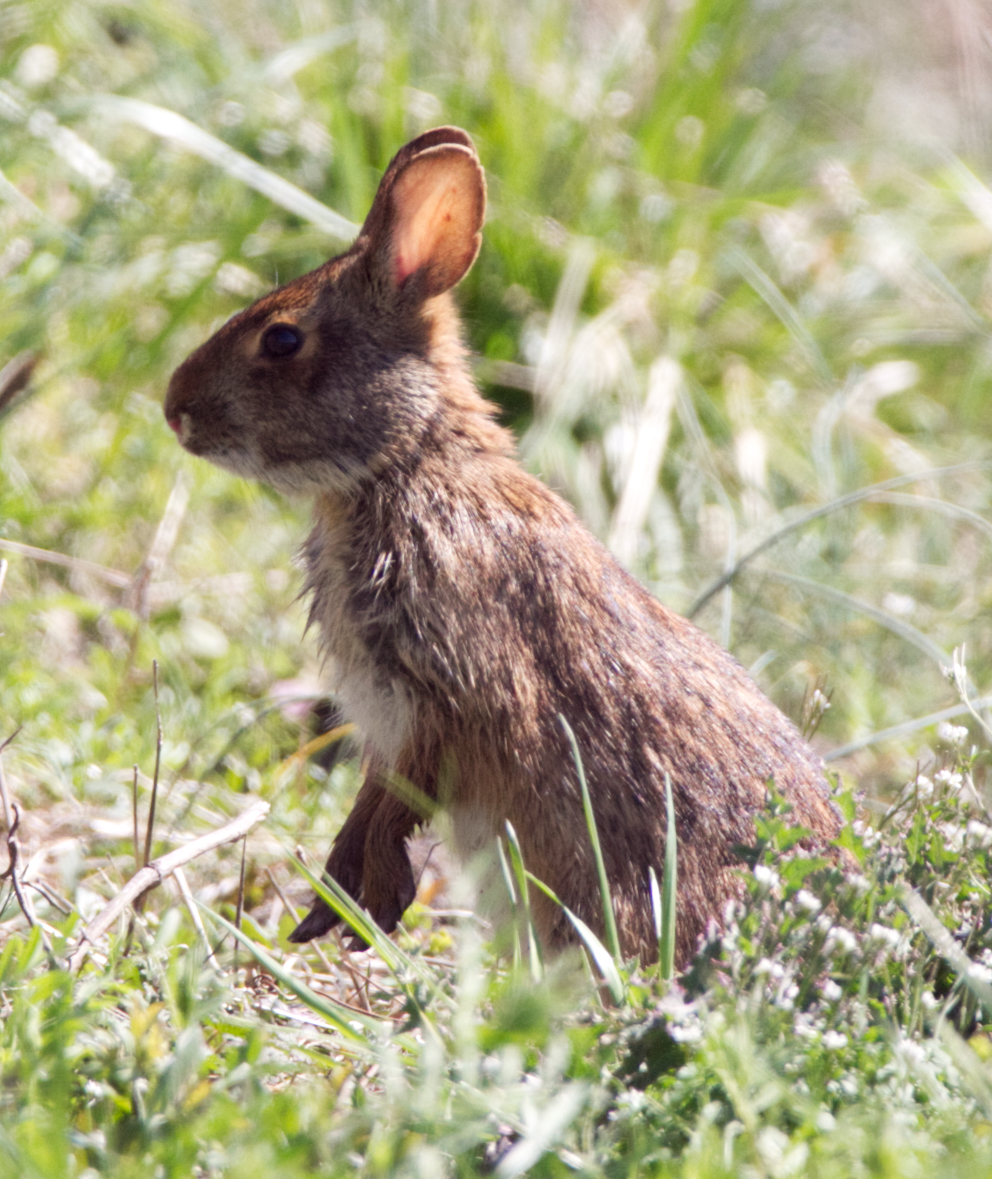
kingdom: Animalia
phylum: Chordata
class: Mammalia
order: Lagomorpha
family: Leporidae
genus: Sylvilagus
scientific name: Sylvilagus palustris
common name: Marsh rabbit
